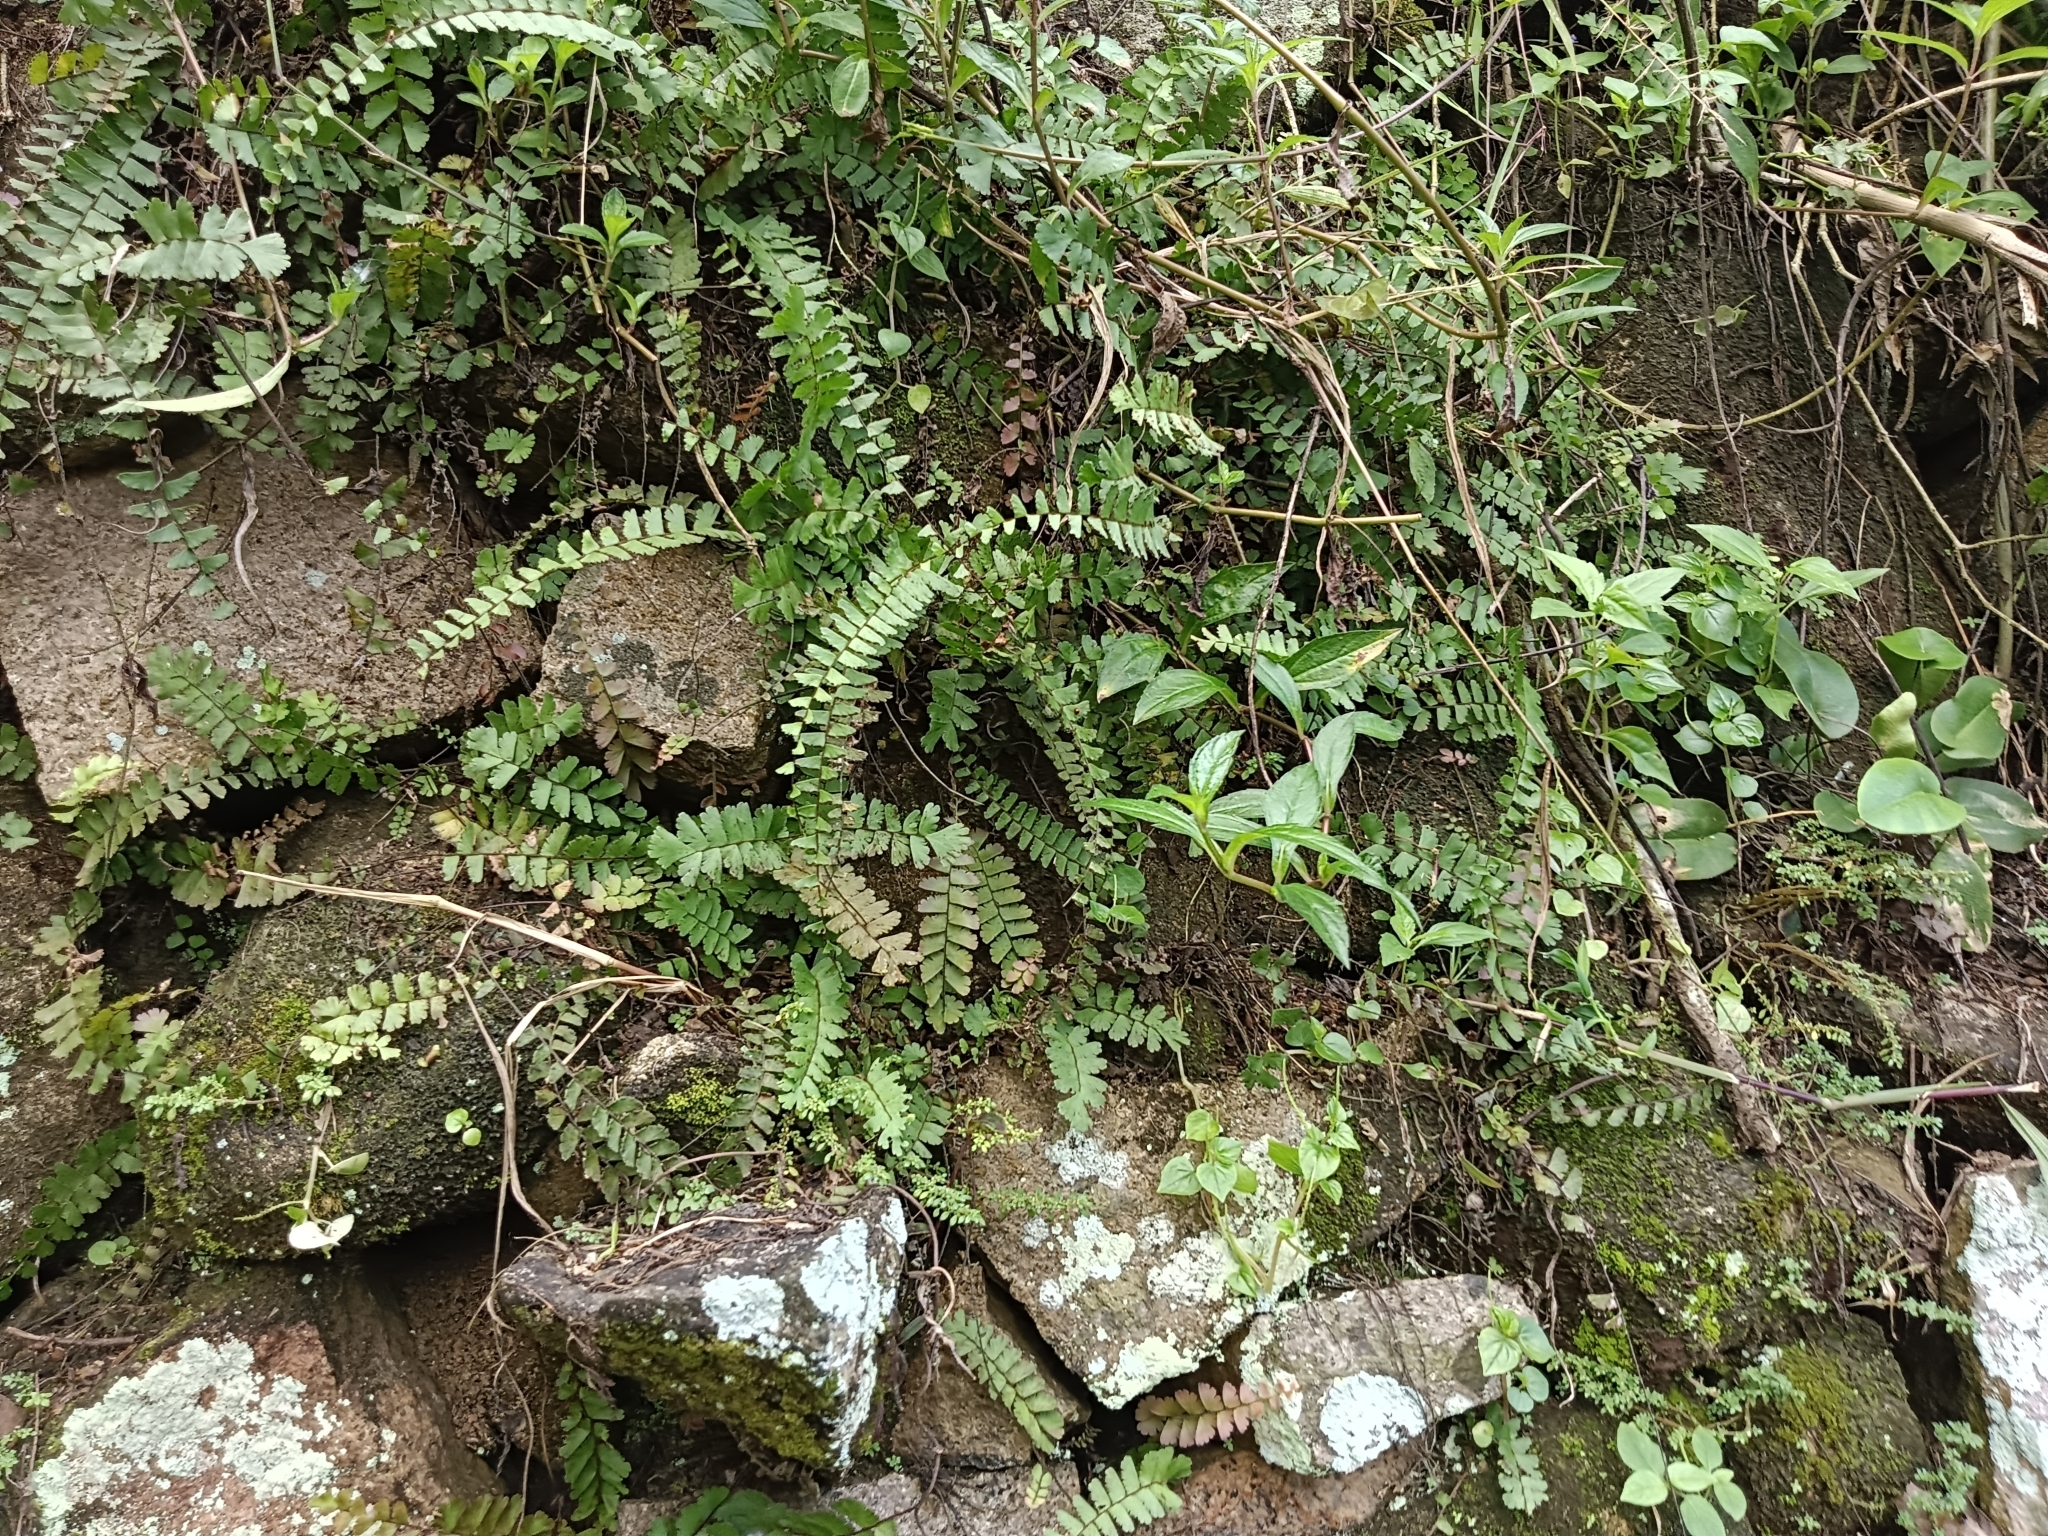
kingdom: Plantae
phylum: Tracheophyta
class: Polypodiopsida
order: Polypodiales
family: Pteridaceae
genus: Adiantum
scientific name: Adiantum caudatum
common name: Tailed maidenhair
